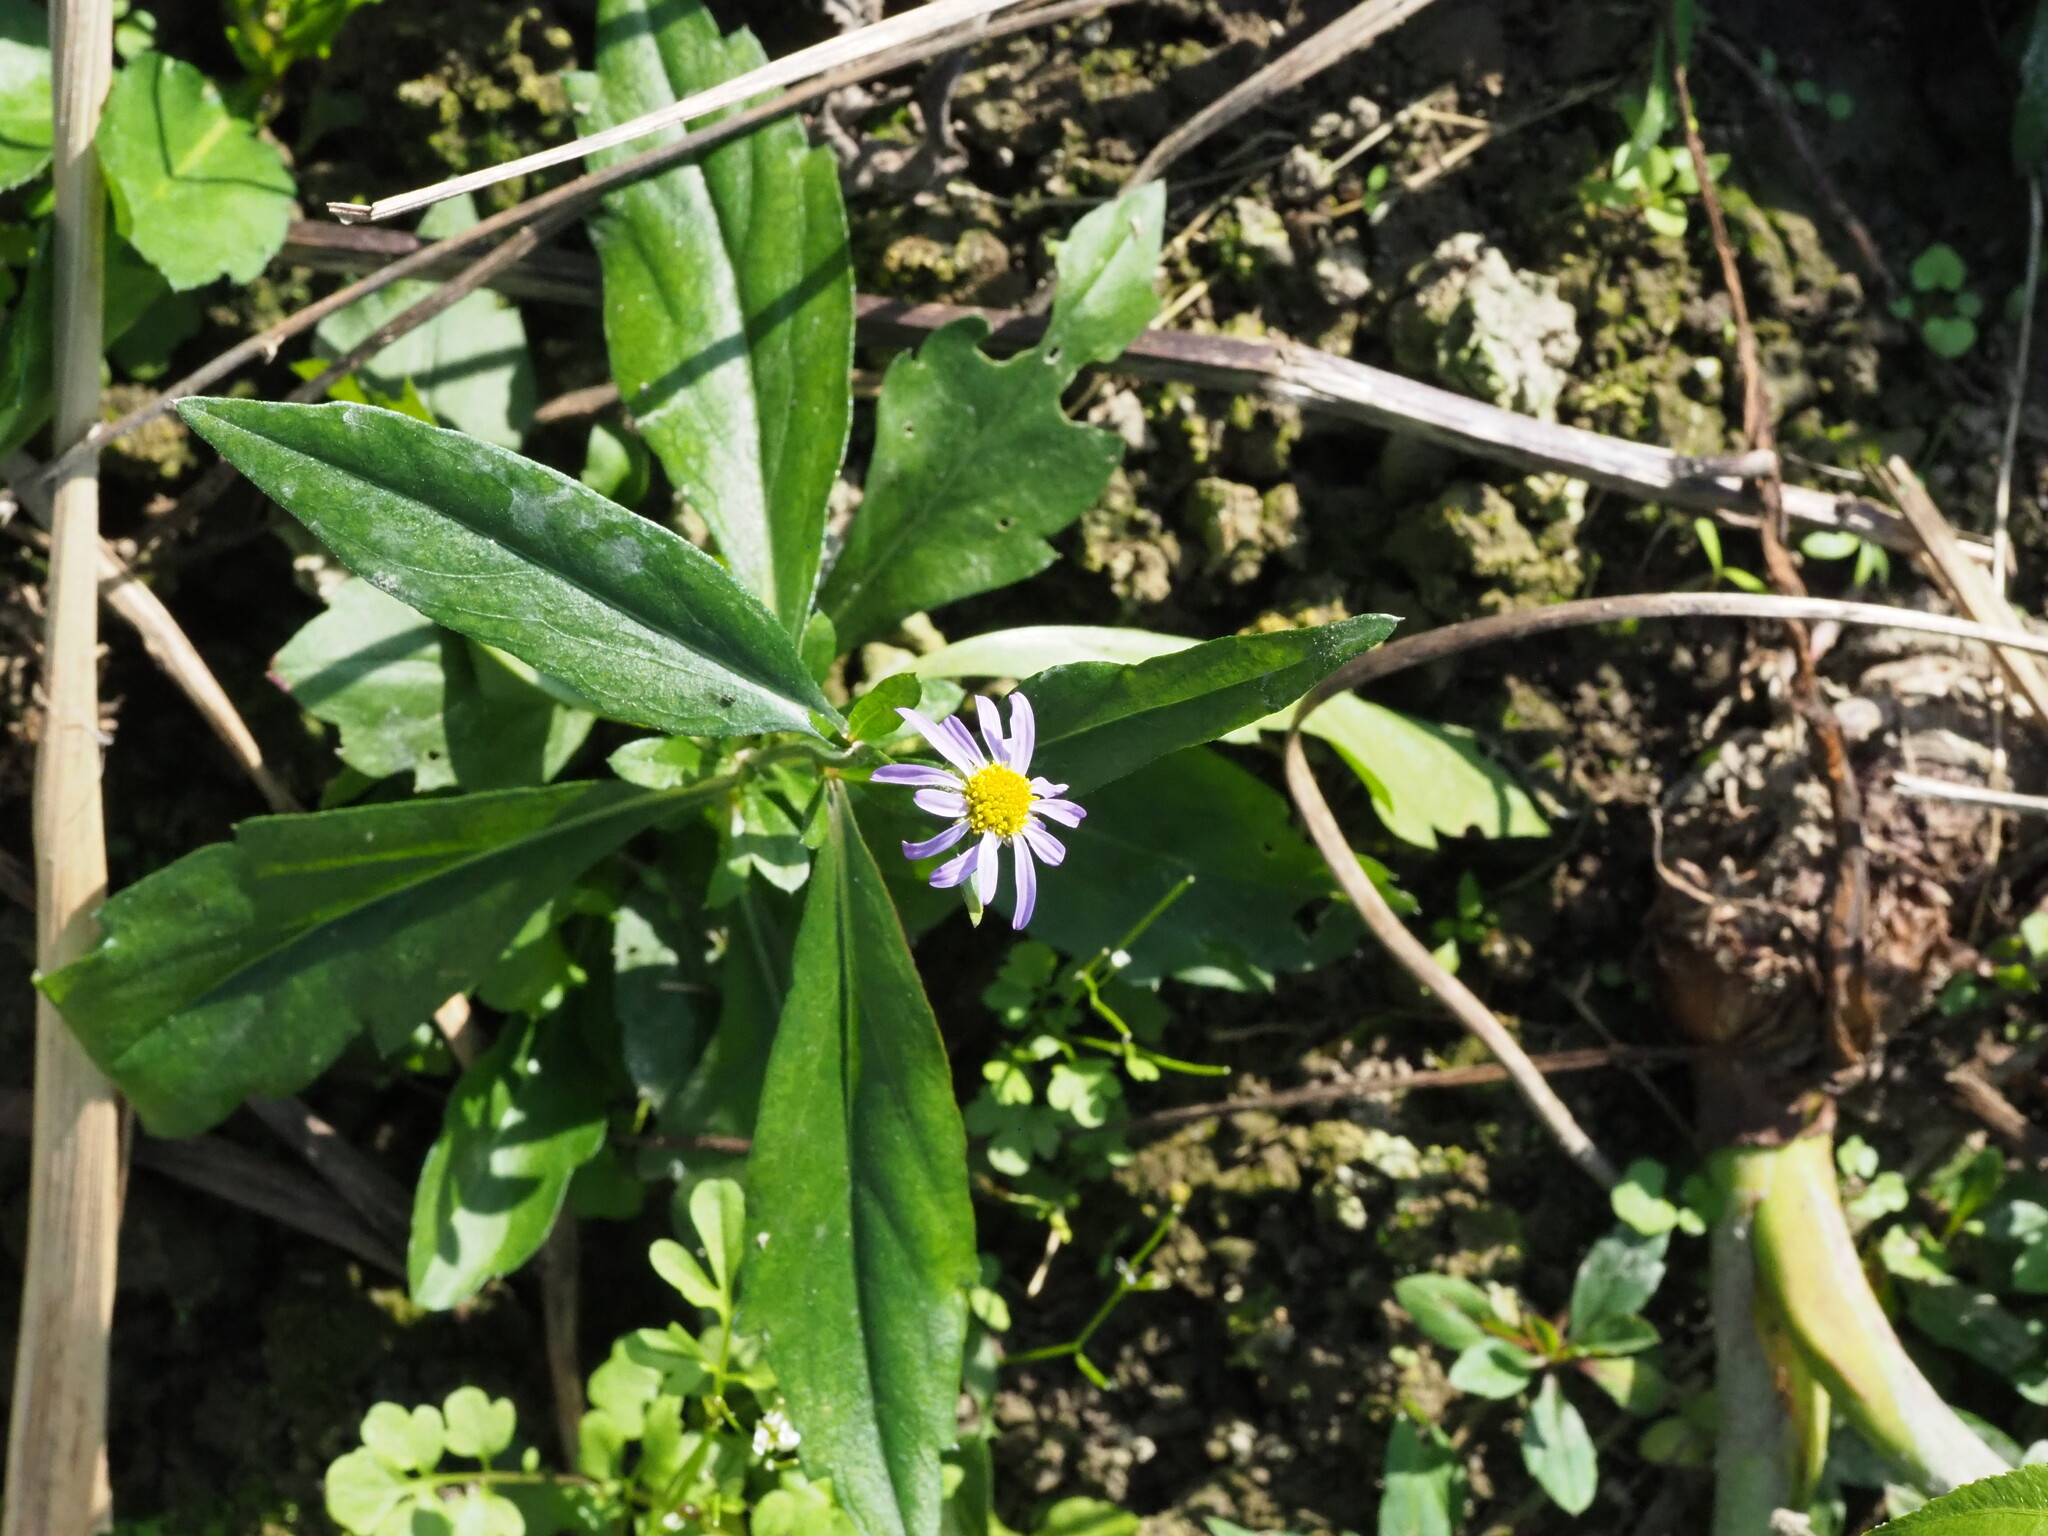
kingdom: Plantae
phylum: Tracheophyta
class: Magnoliopsida
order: Asterales
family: Asteraceae
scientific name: Asteraceae
